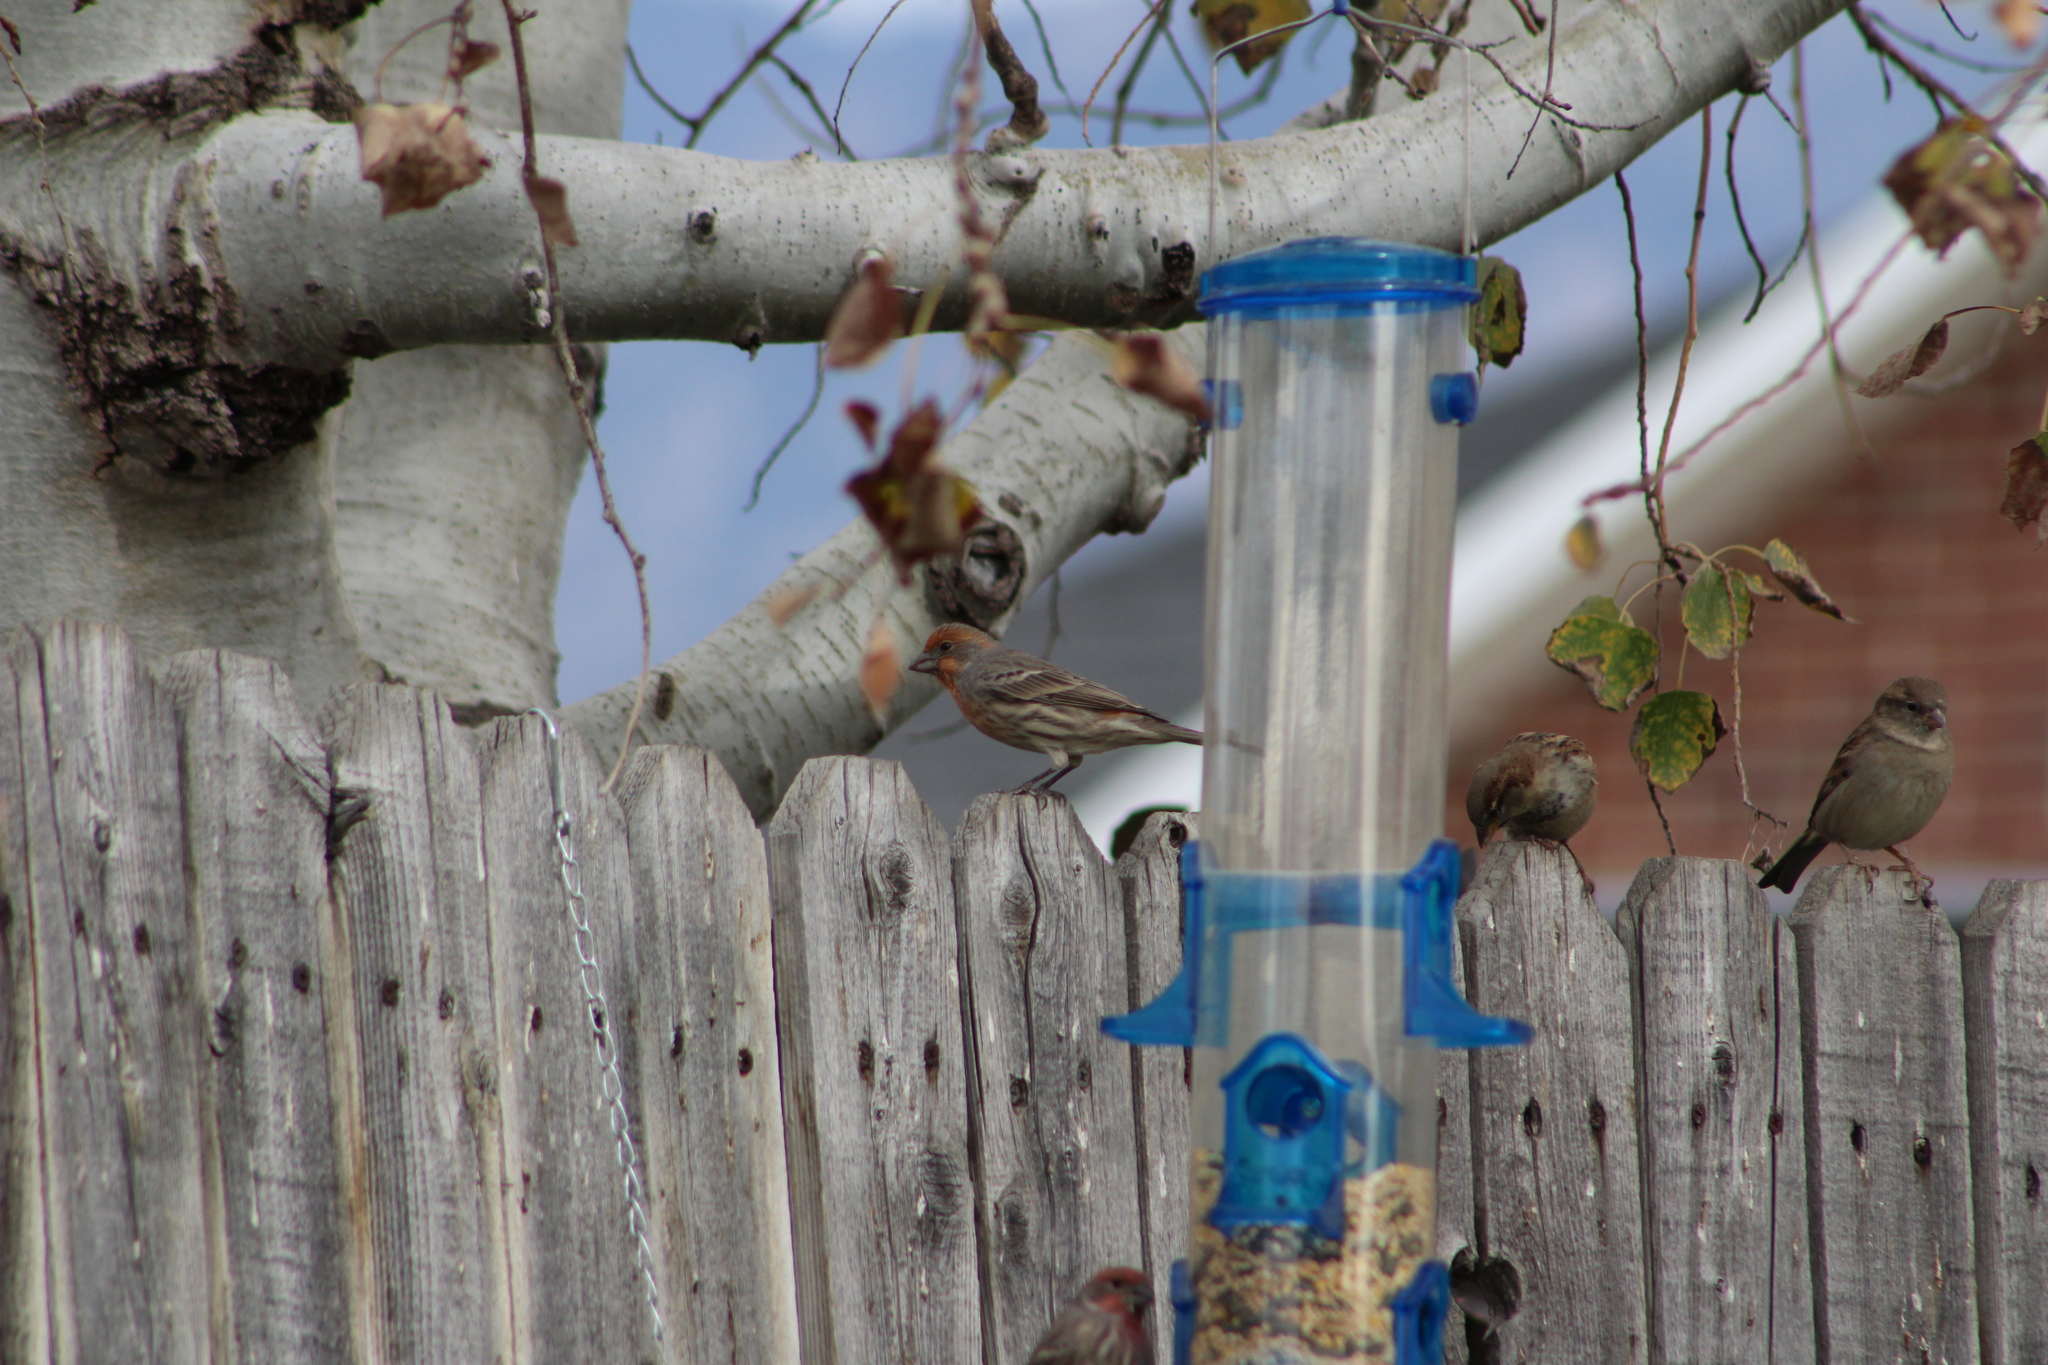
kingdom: Animalia
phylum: Chordata
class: Aves
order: Passeriformes
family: Fringillidae
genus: Haemorhous
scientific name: Haemorhous mexicanus
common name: House finch
